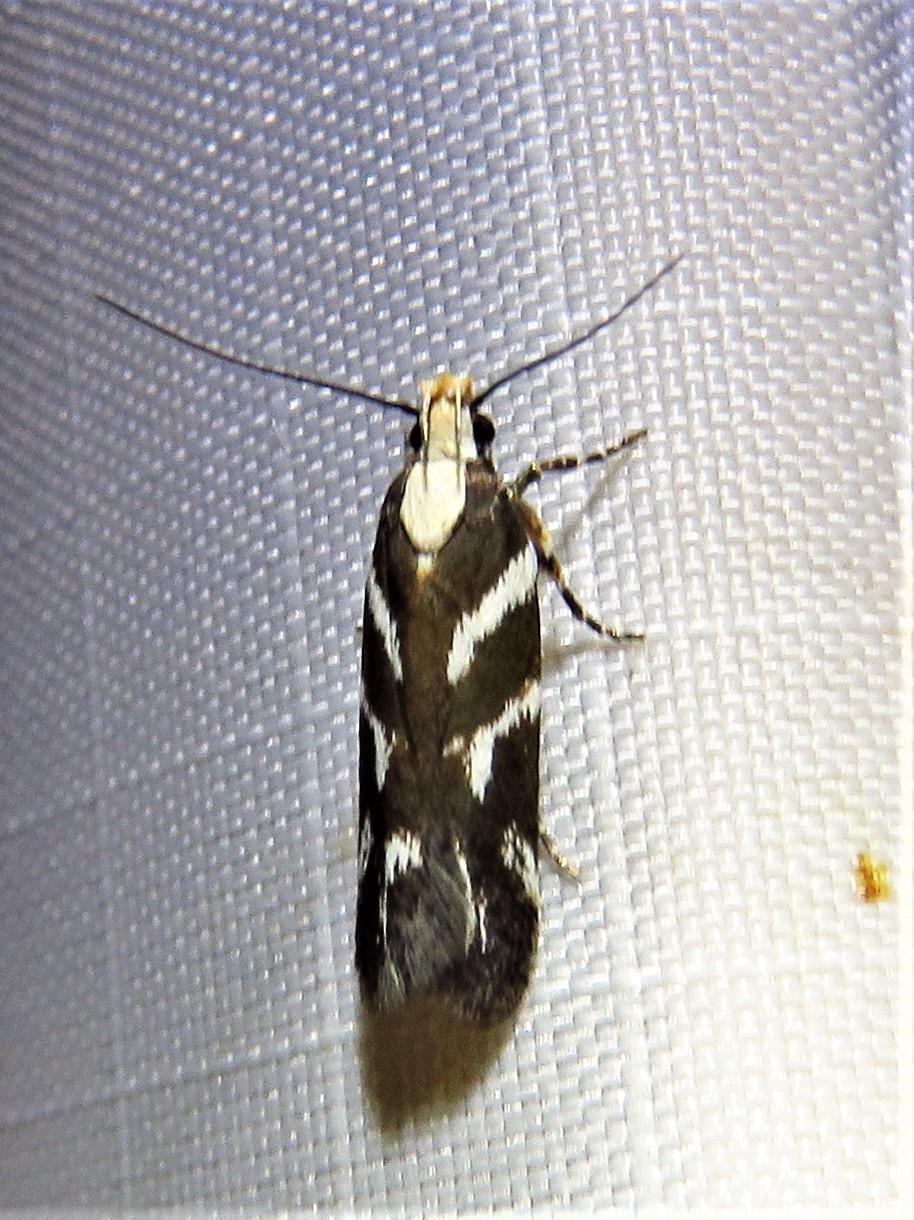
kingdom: Animalia
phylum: Arthropoda
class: Insecta
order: Lepidoptera
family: Gelechiidae
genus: Filatima
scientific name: Filatima albilorella
